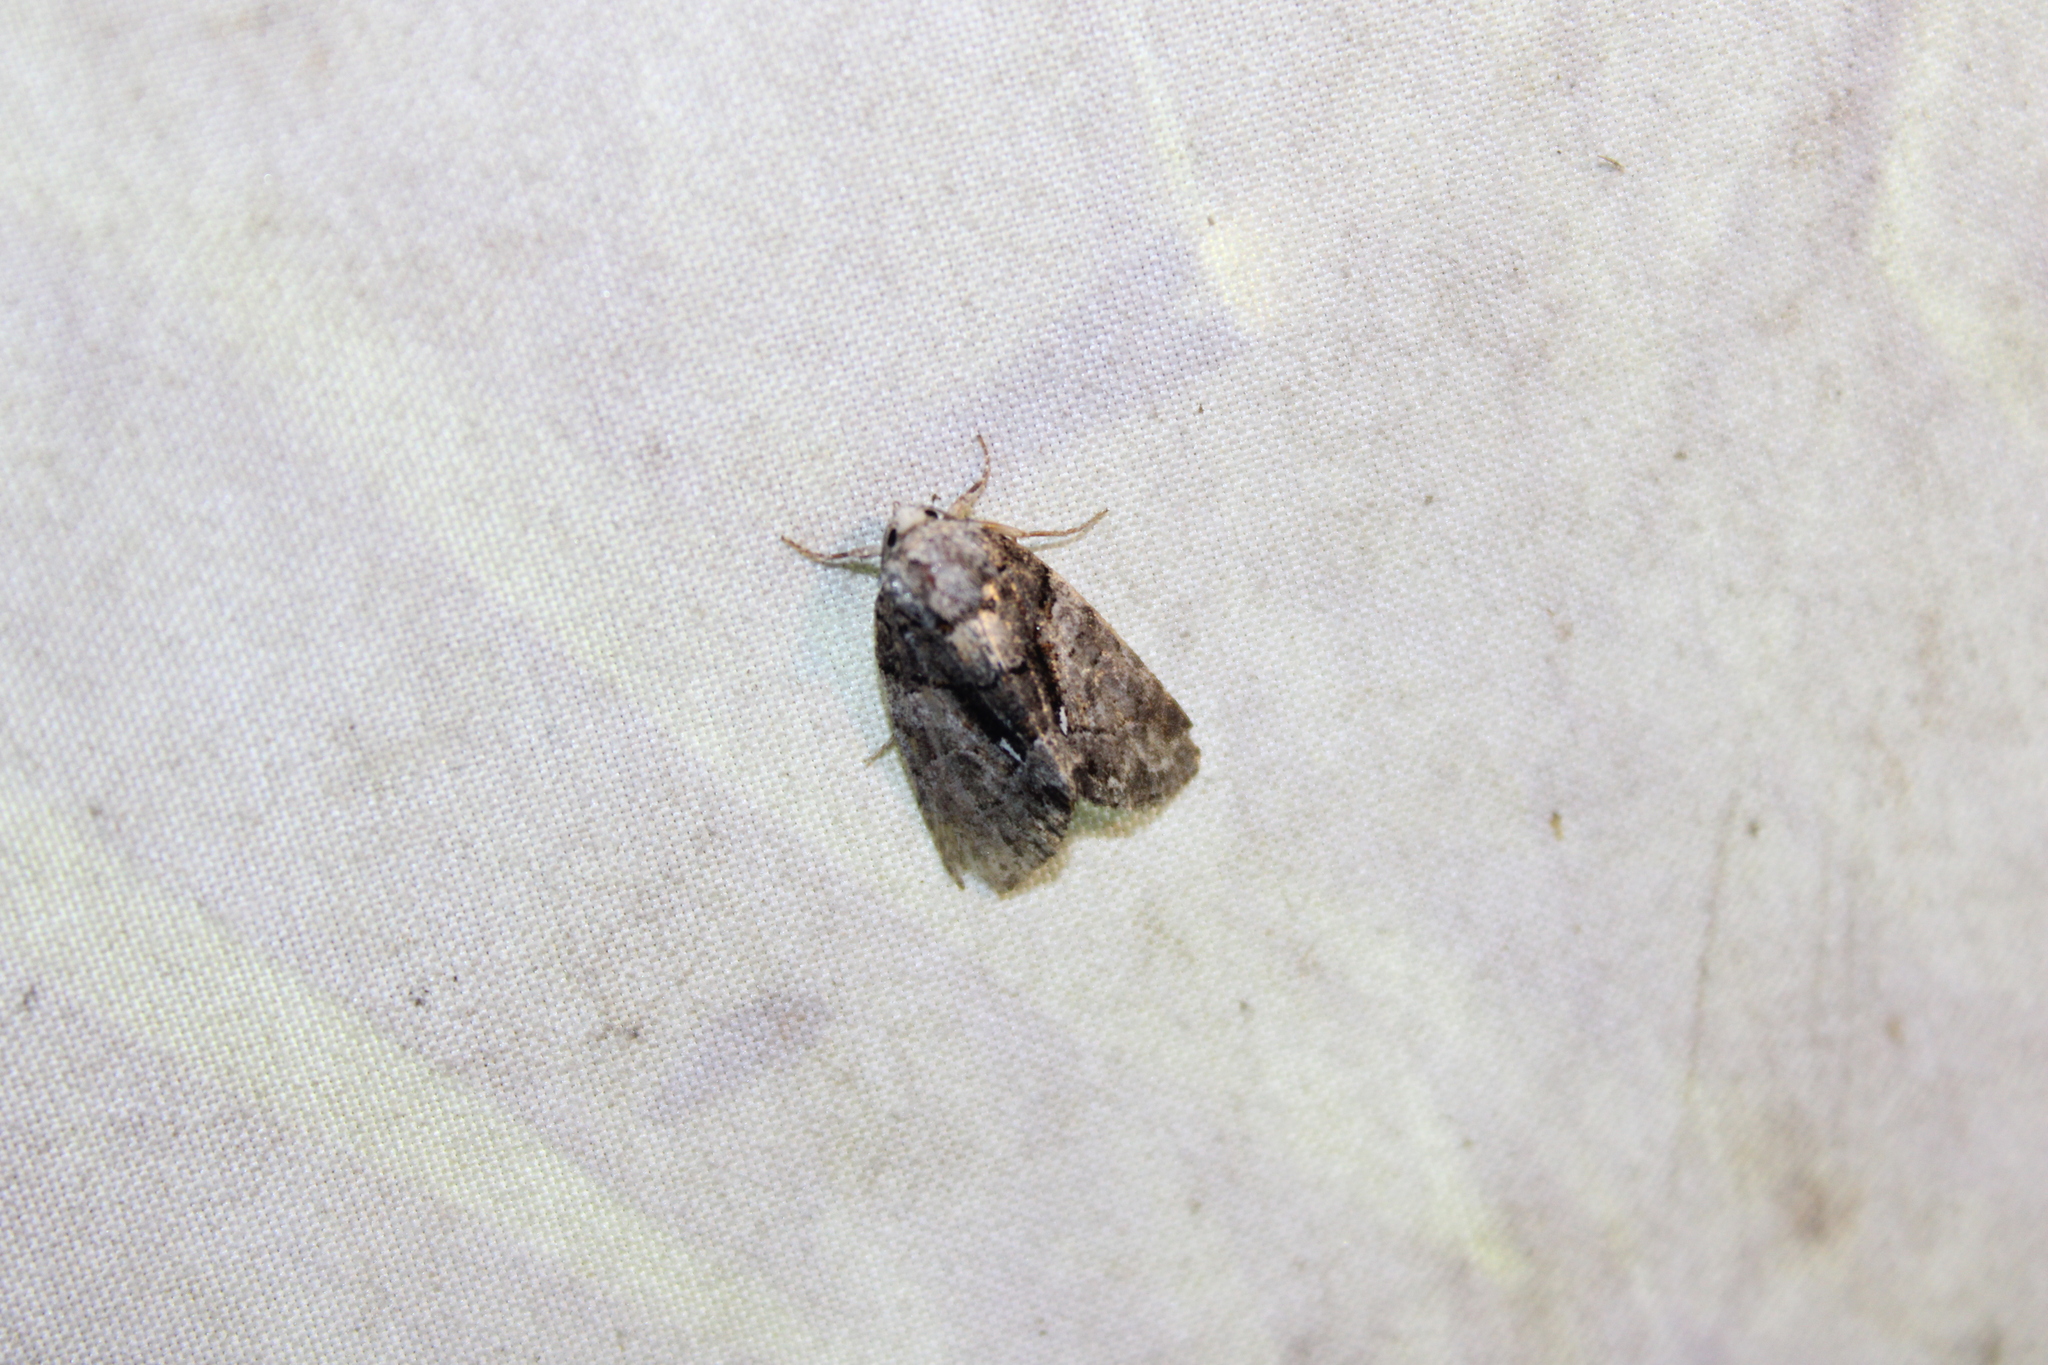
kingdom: Animalia
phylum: Arthropoda
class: Insecta
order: Lepidoptera
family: Noctuidae
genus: Chytonix
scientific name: Chytonix palliatricula
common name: Cloaked marvel
